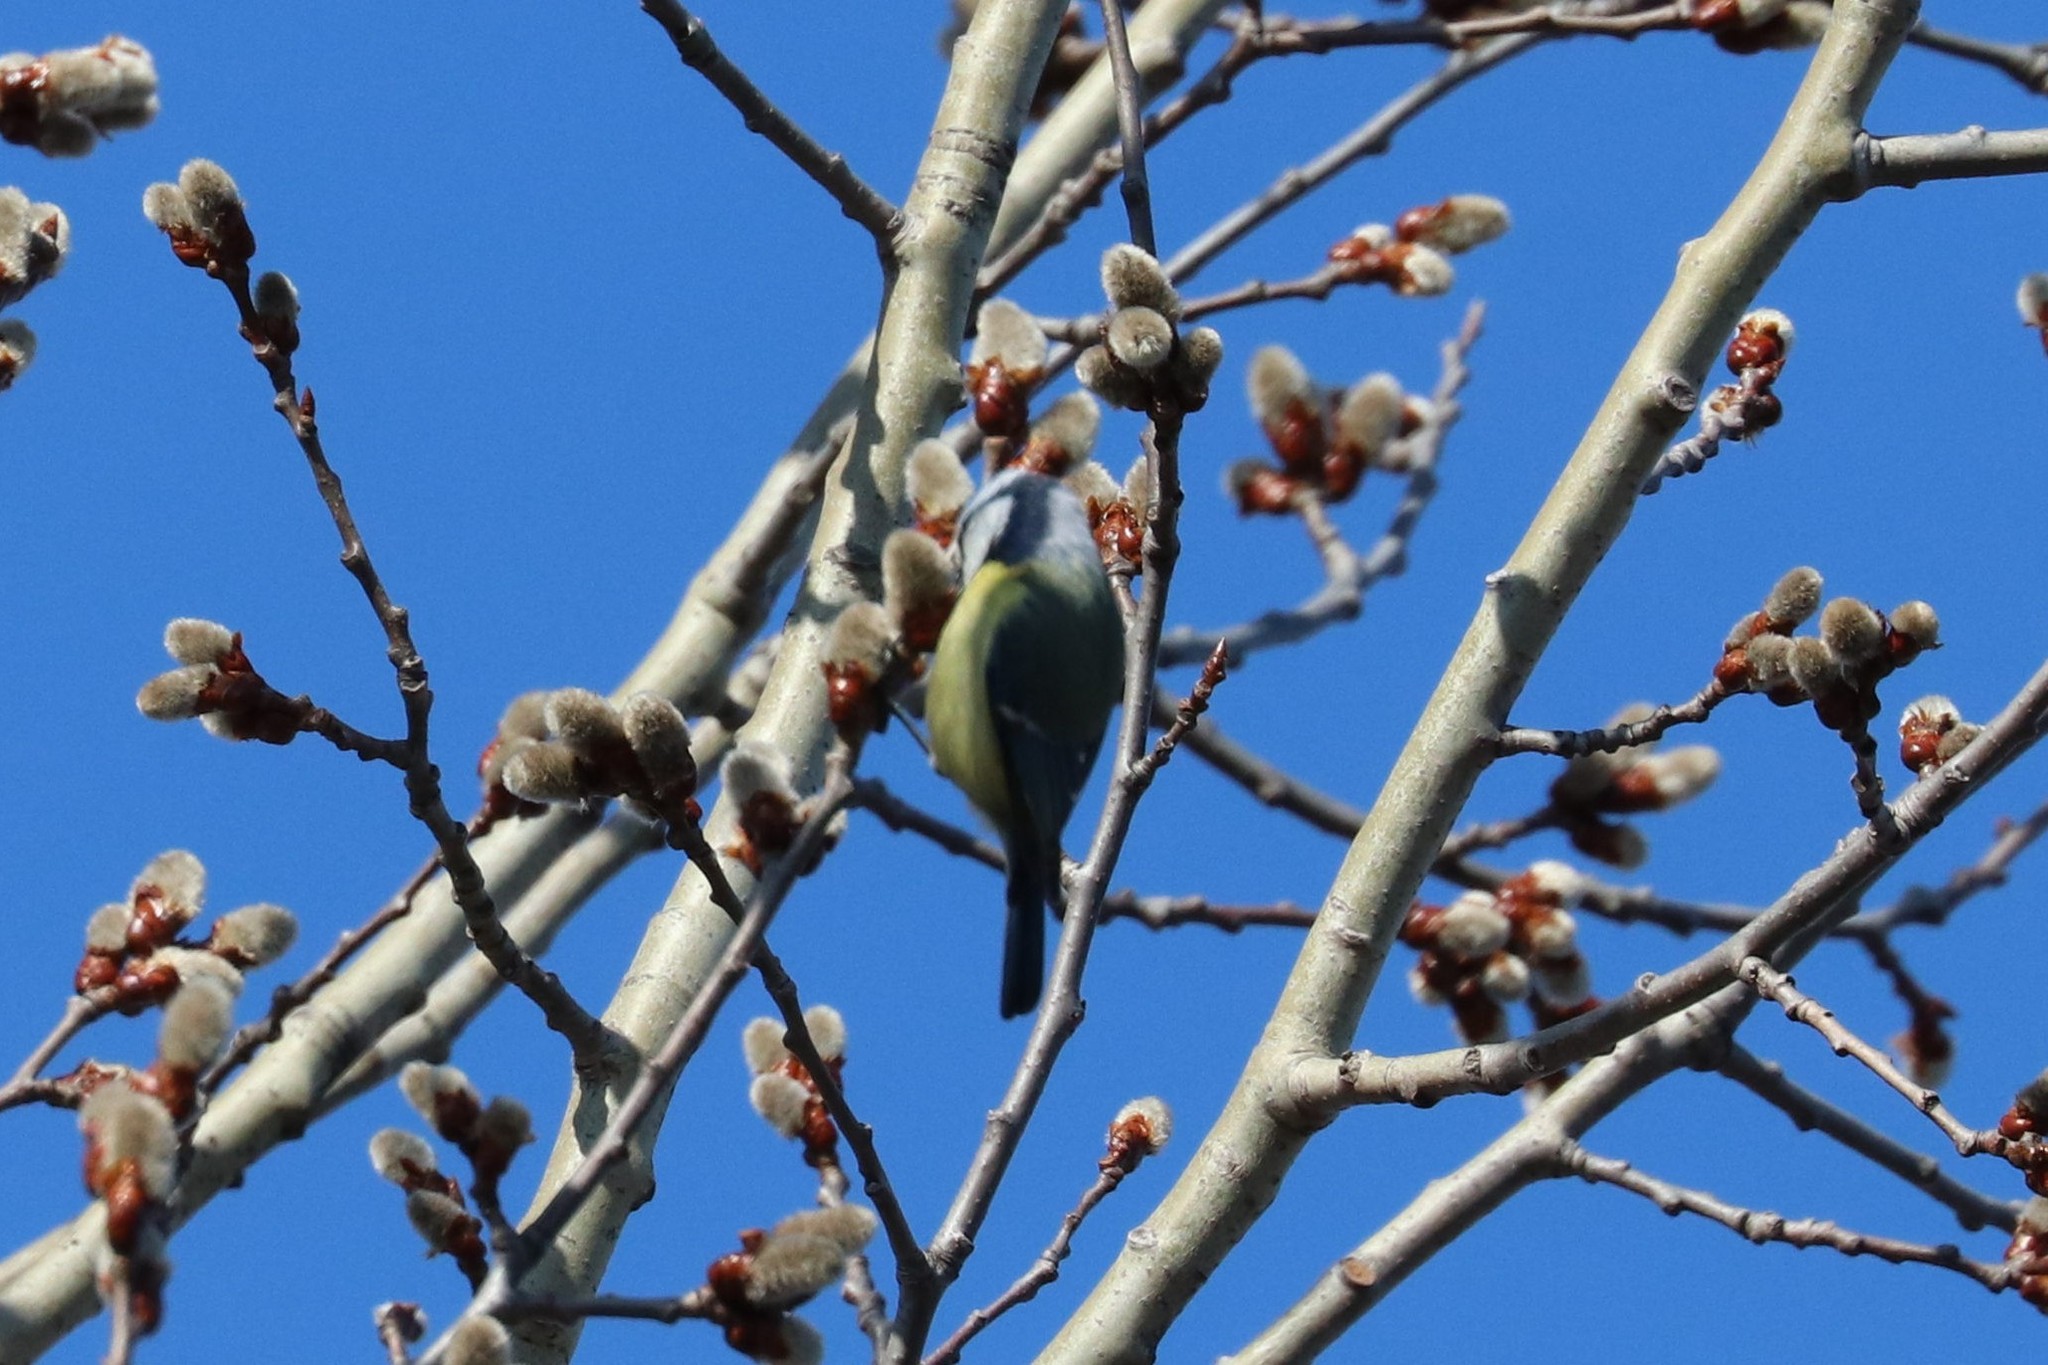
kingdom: Animalia
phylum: Chordata
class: Aves
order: Passeriformes
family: Paridae
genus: Cyanistes
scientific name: Cyanistes caeruleus
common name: Eurasian blue tit
